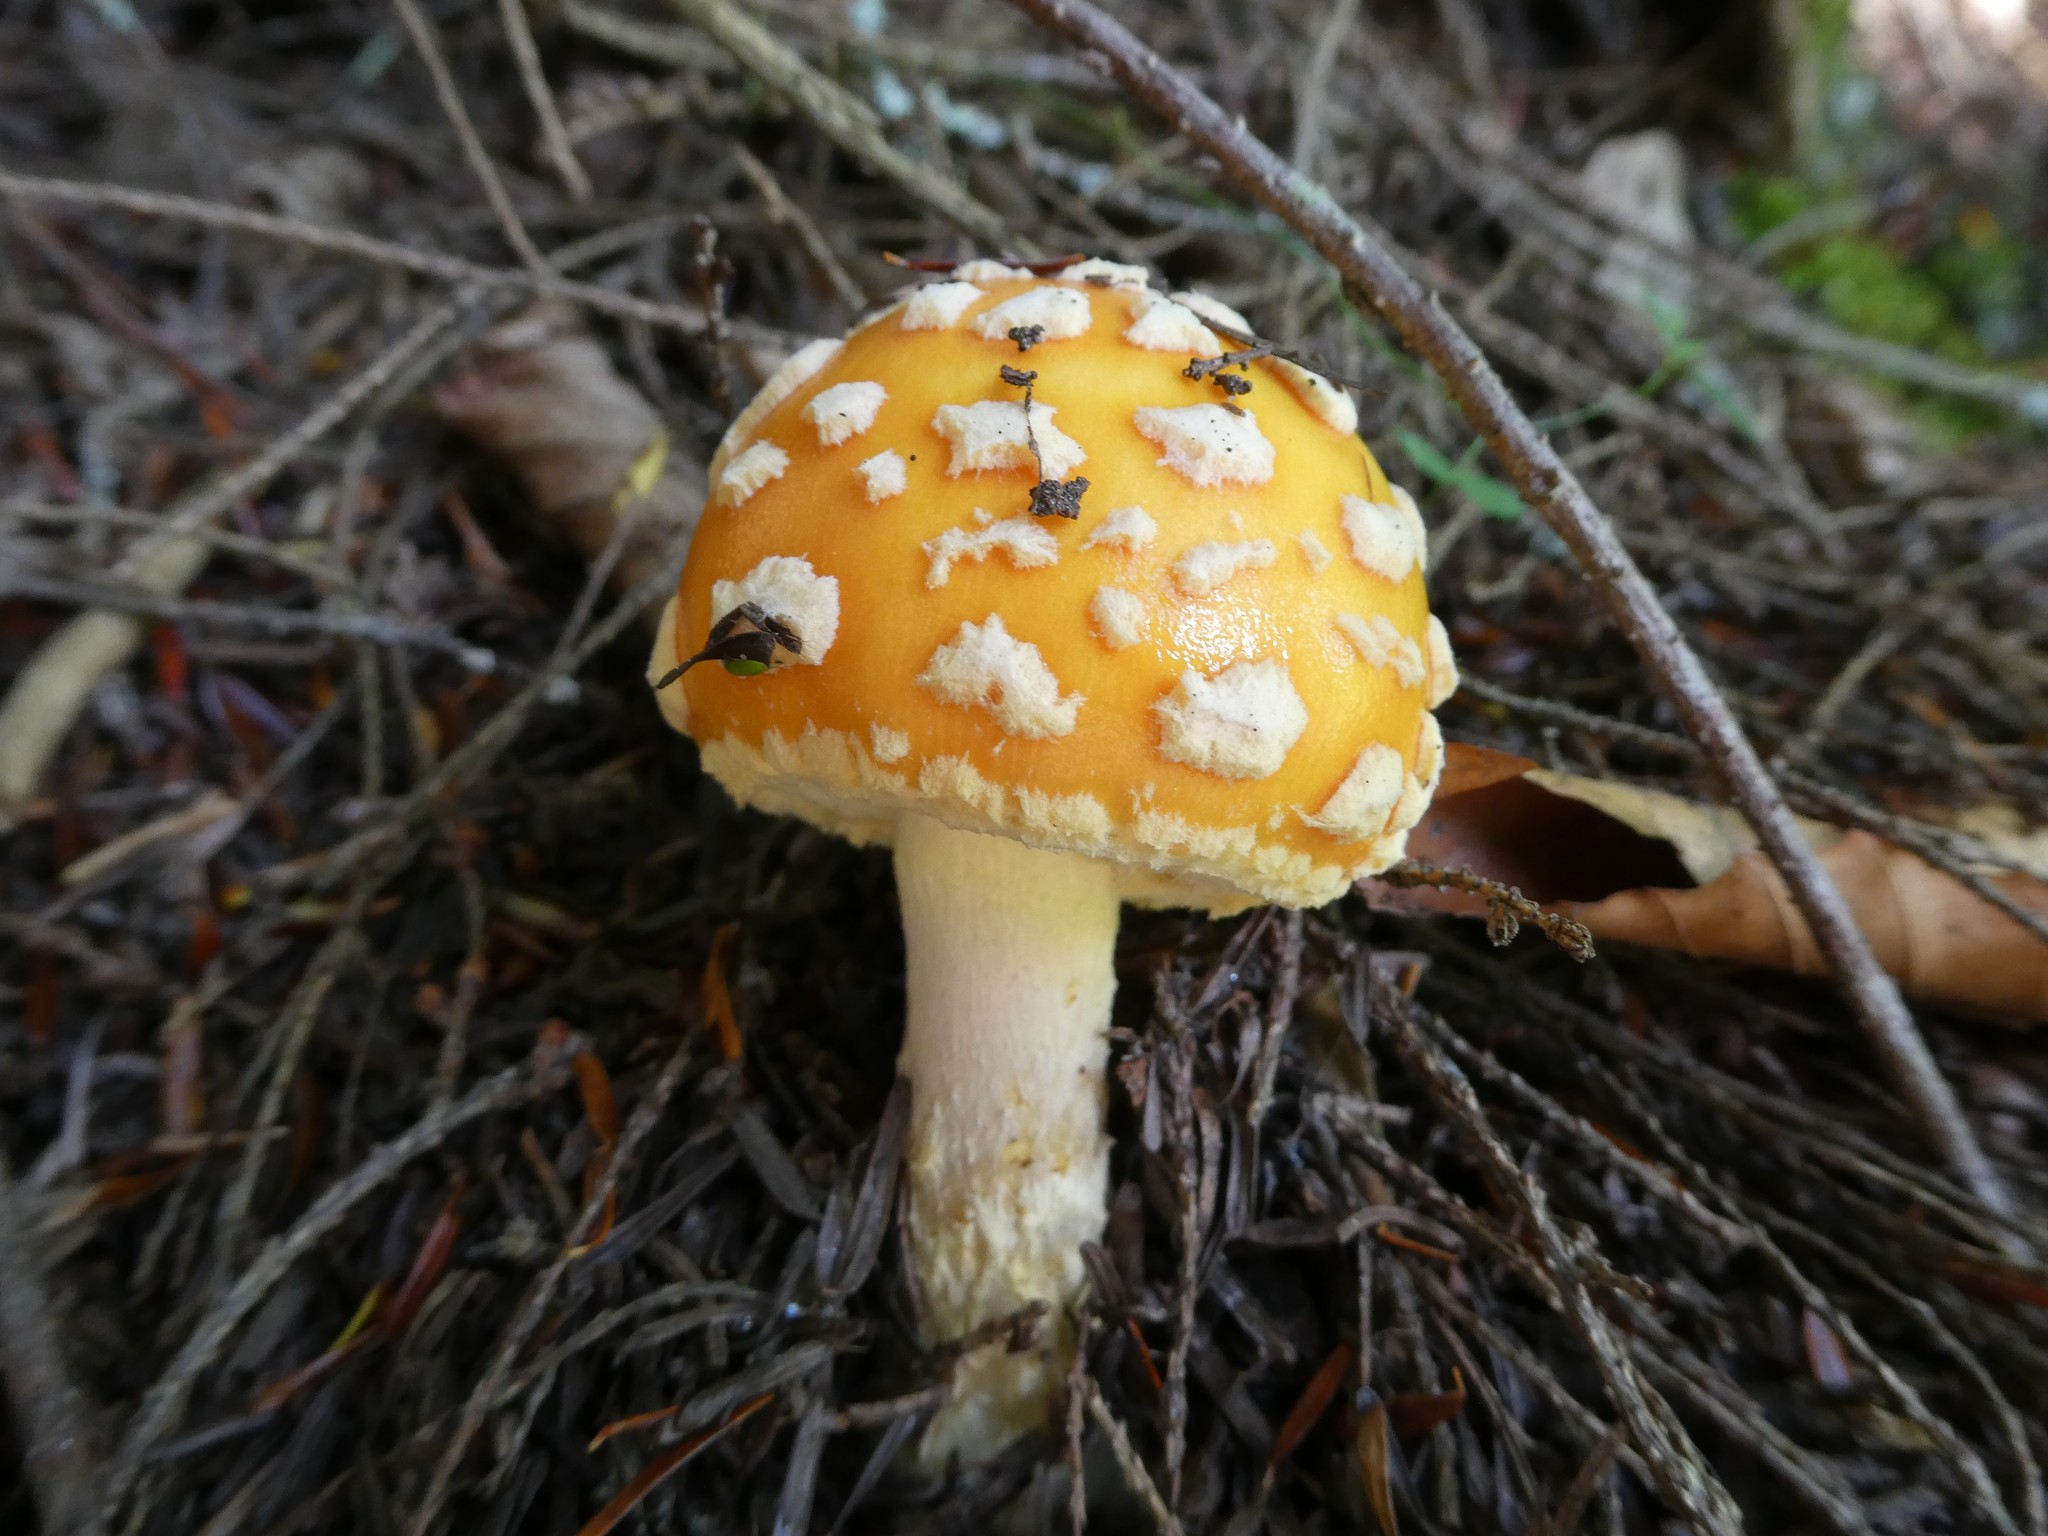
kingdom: Fungi
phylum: Basidiomycota
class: Agaricomycetes
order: Agaricales
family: Amanitaceae
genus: Amanita
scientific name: Amanita muscaria
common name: Fly agaric
